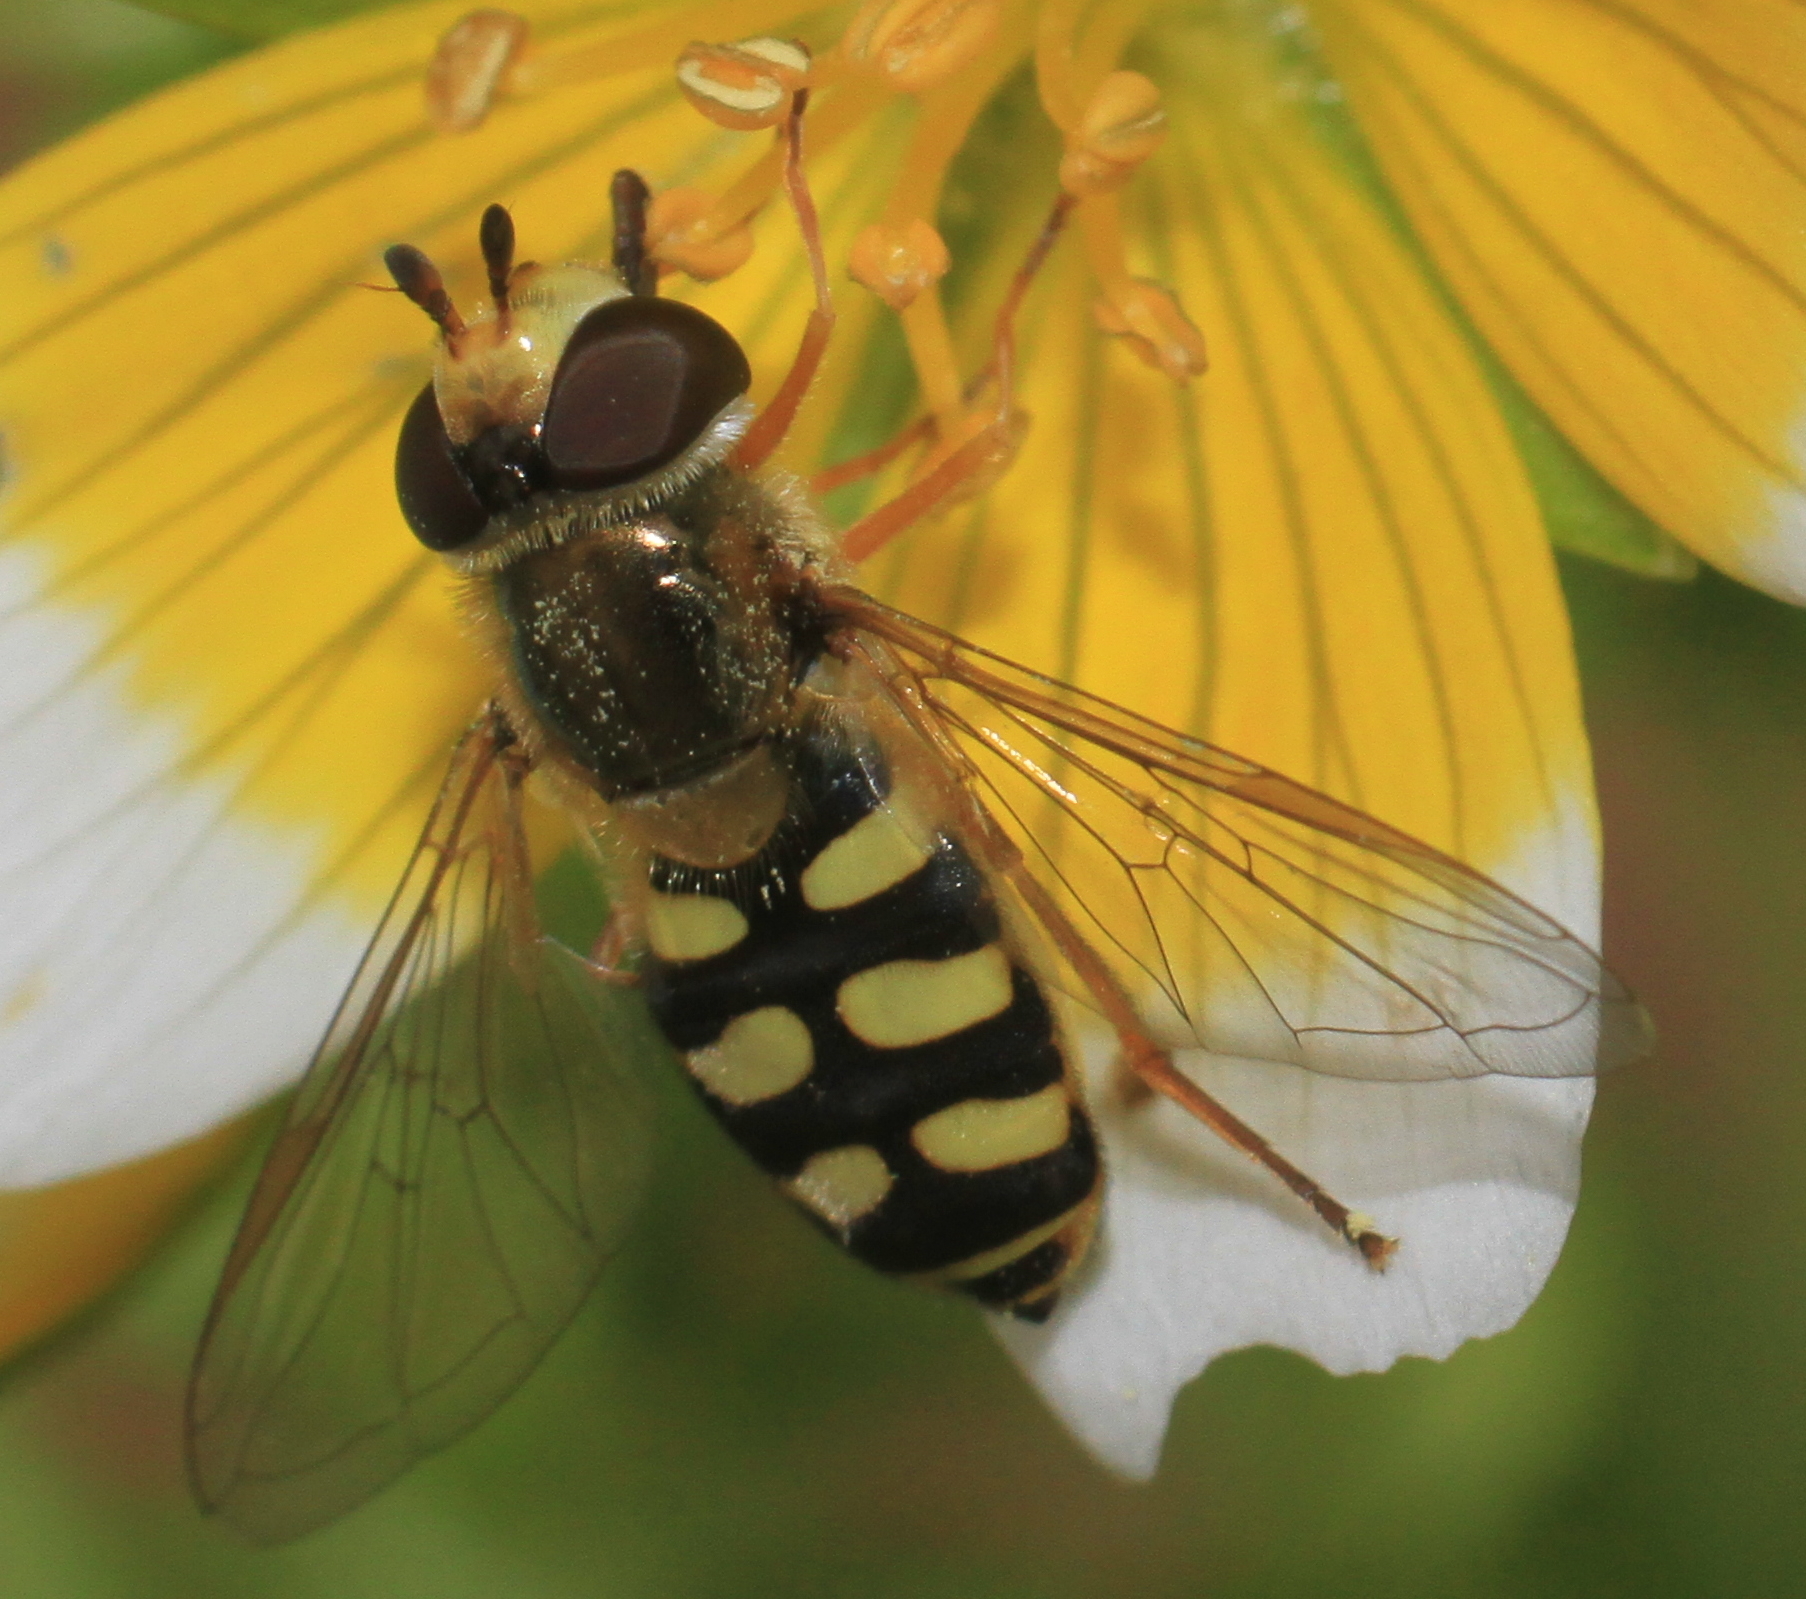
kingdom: Animalia
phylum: Arthropoda
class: Insecta
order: Diptera
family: Syrphidae
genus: Eupeodes
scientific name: Eupeodes corollae
